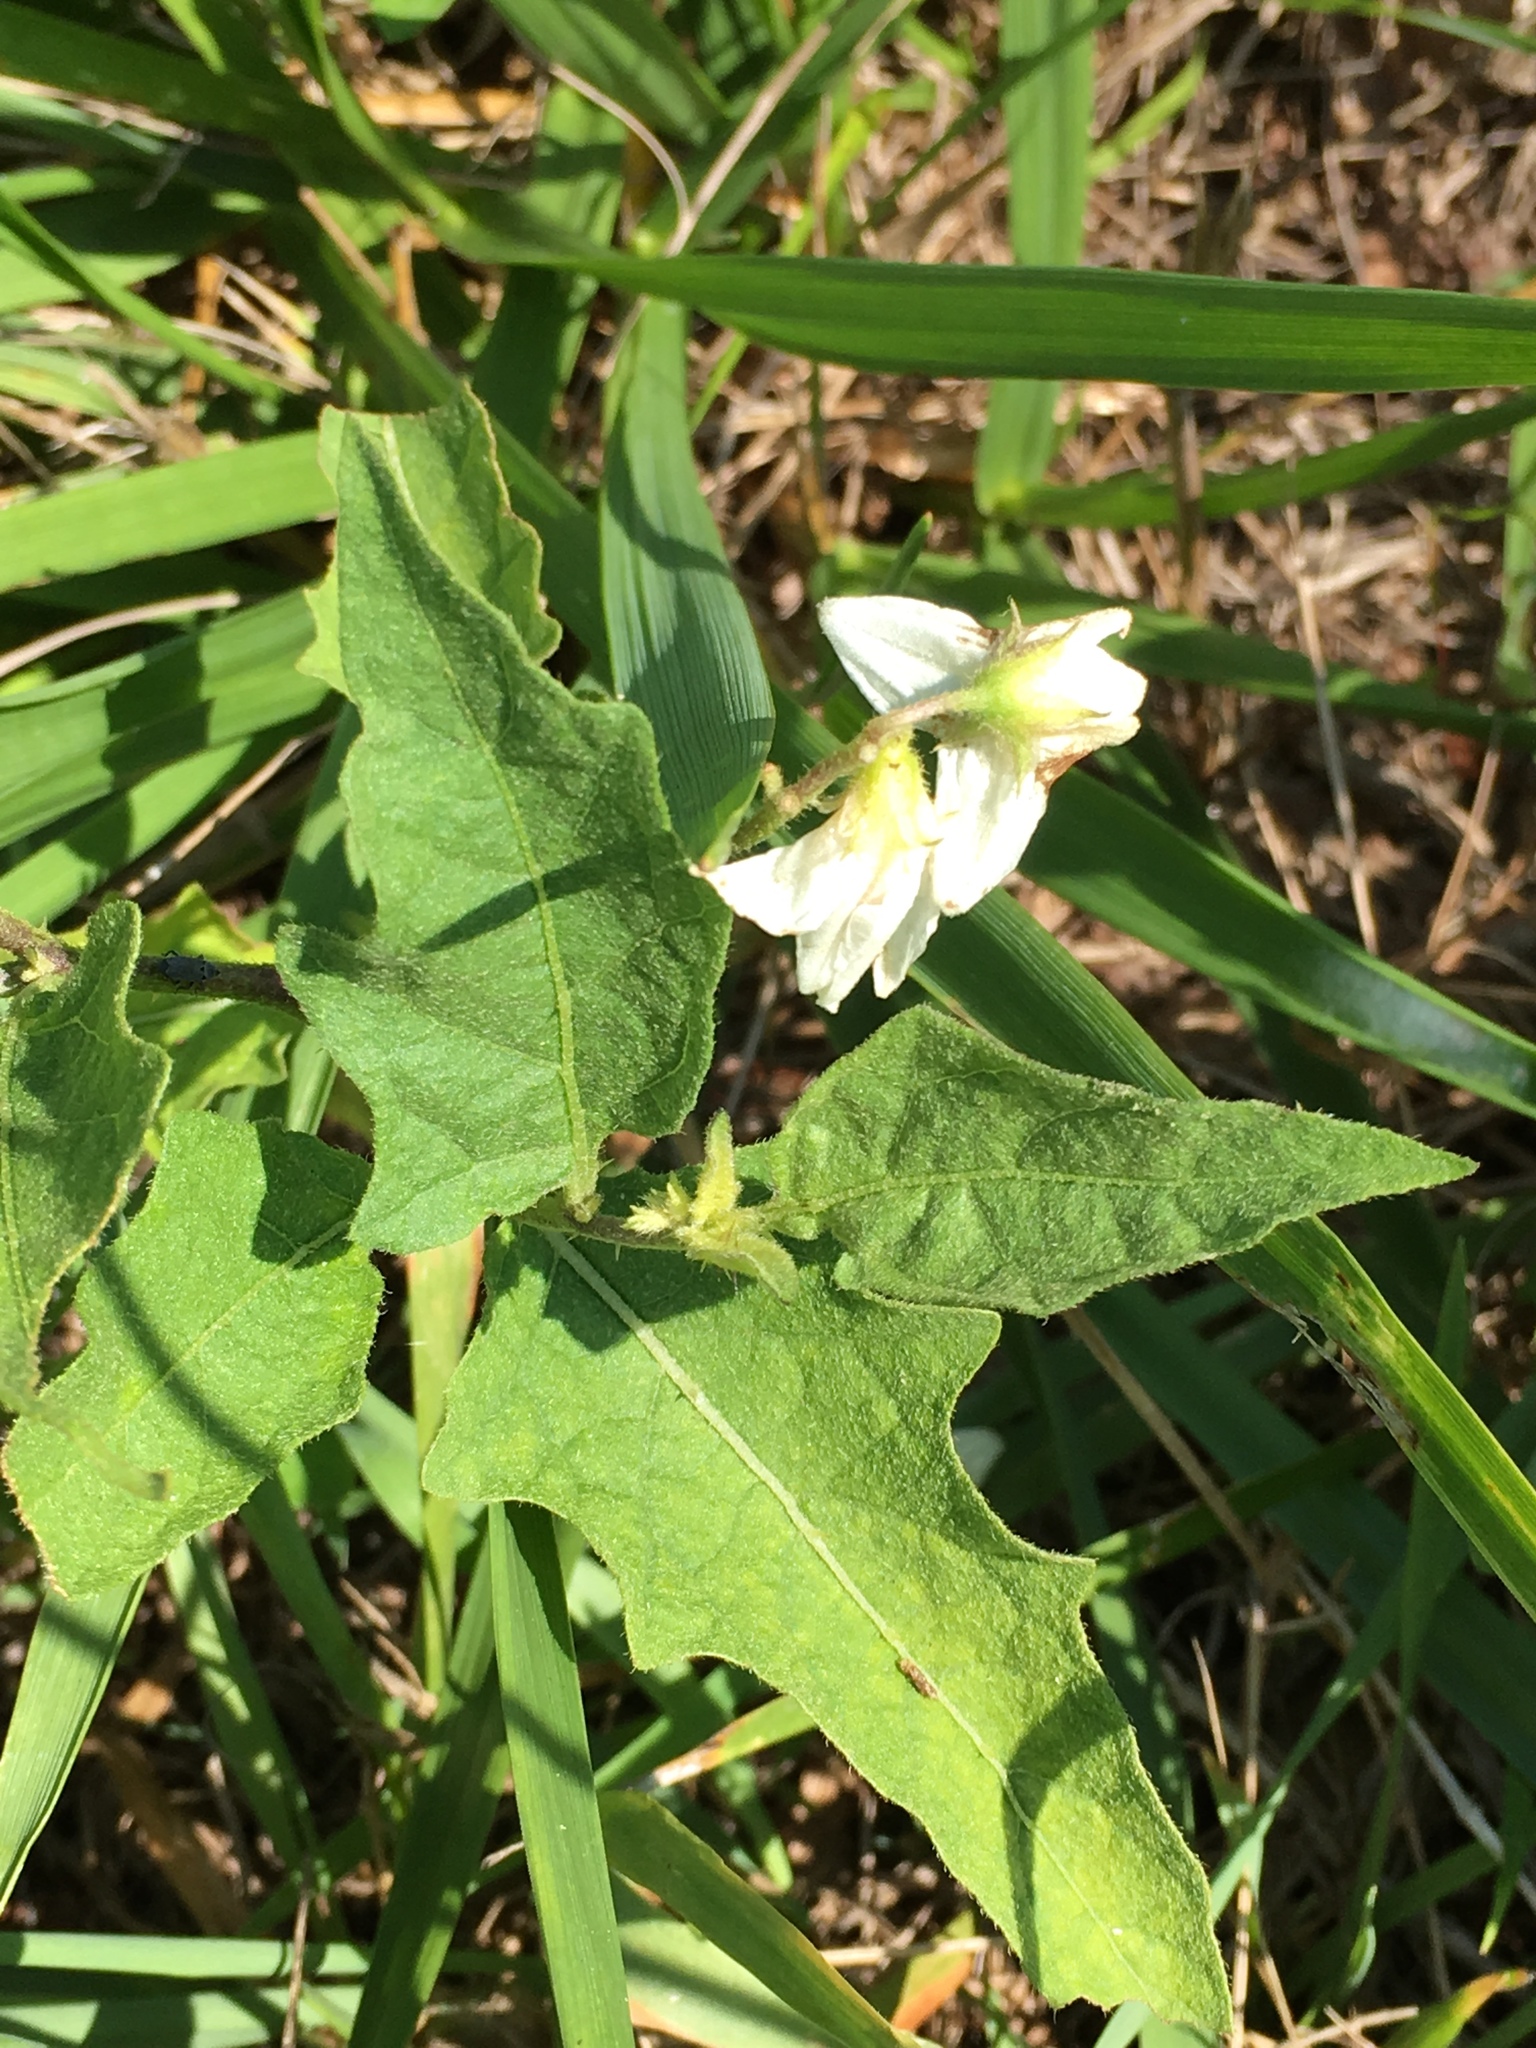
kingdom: Plantae
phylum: Tracheophyta
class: Magnoliopsida
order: Solanales
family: Solanaceae
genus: Solanum
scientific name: Solanum carolinense
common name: Horse-nettle
